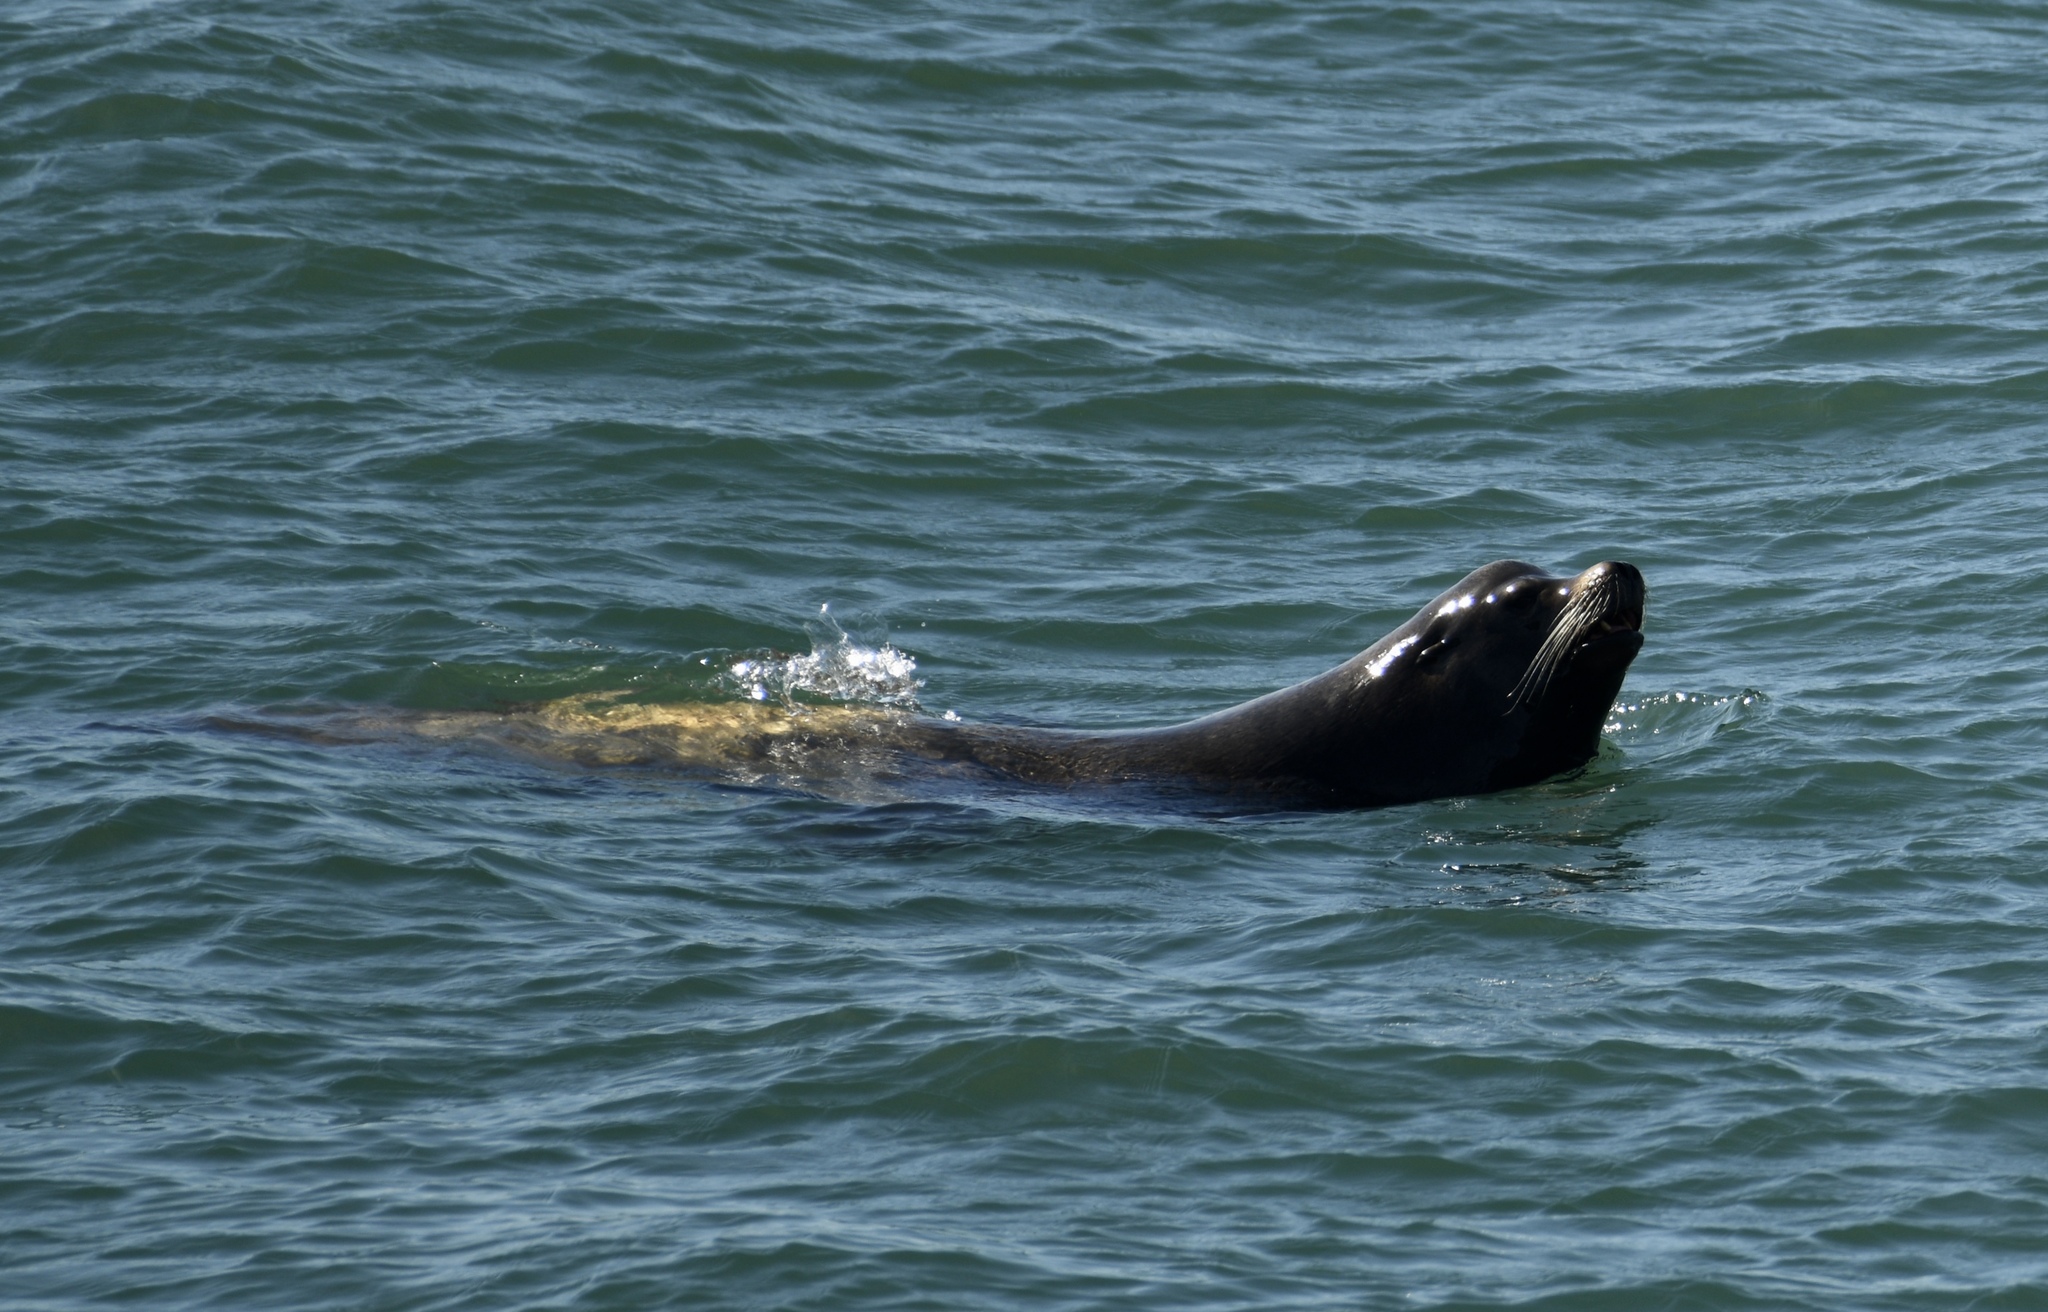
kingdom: Animalia
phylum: Chordata
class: Mammalia
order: Carnivora
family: Otariidae
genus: Zalophus
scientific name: Zalophus californianus
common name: California sea lion
